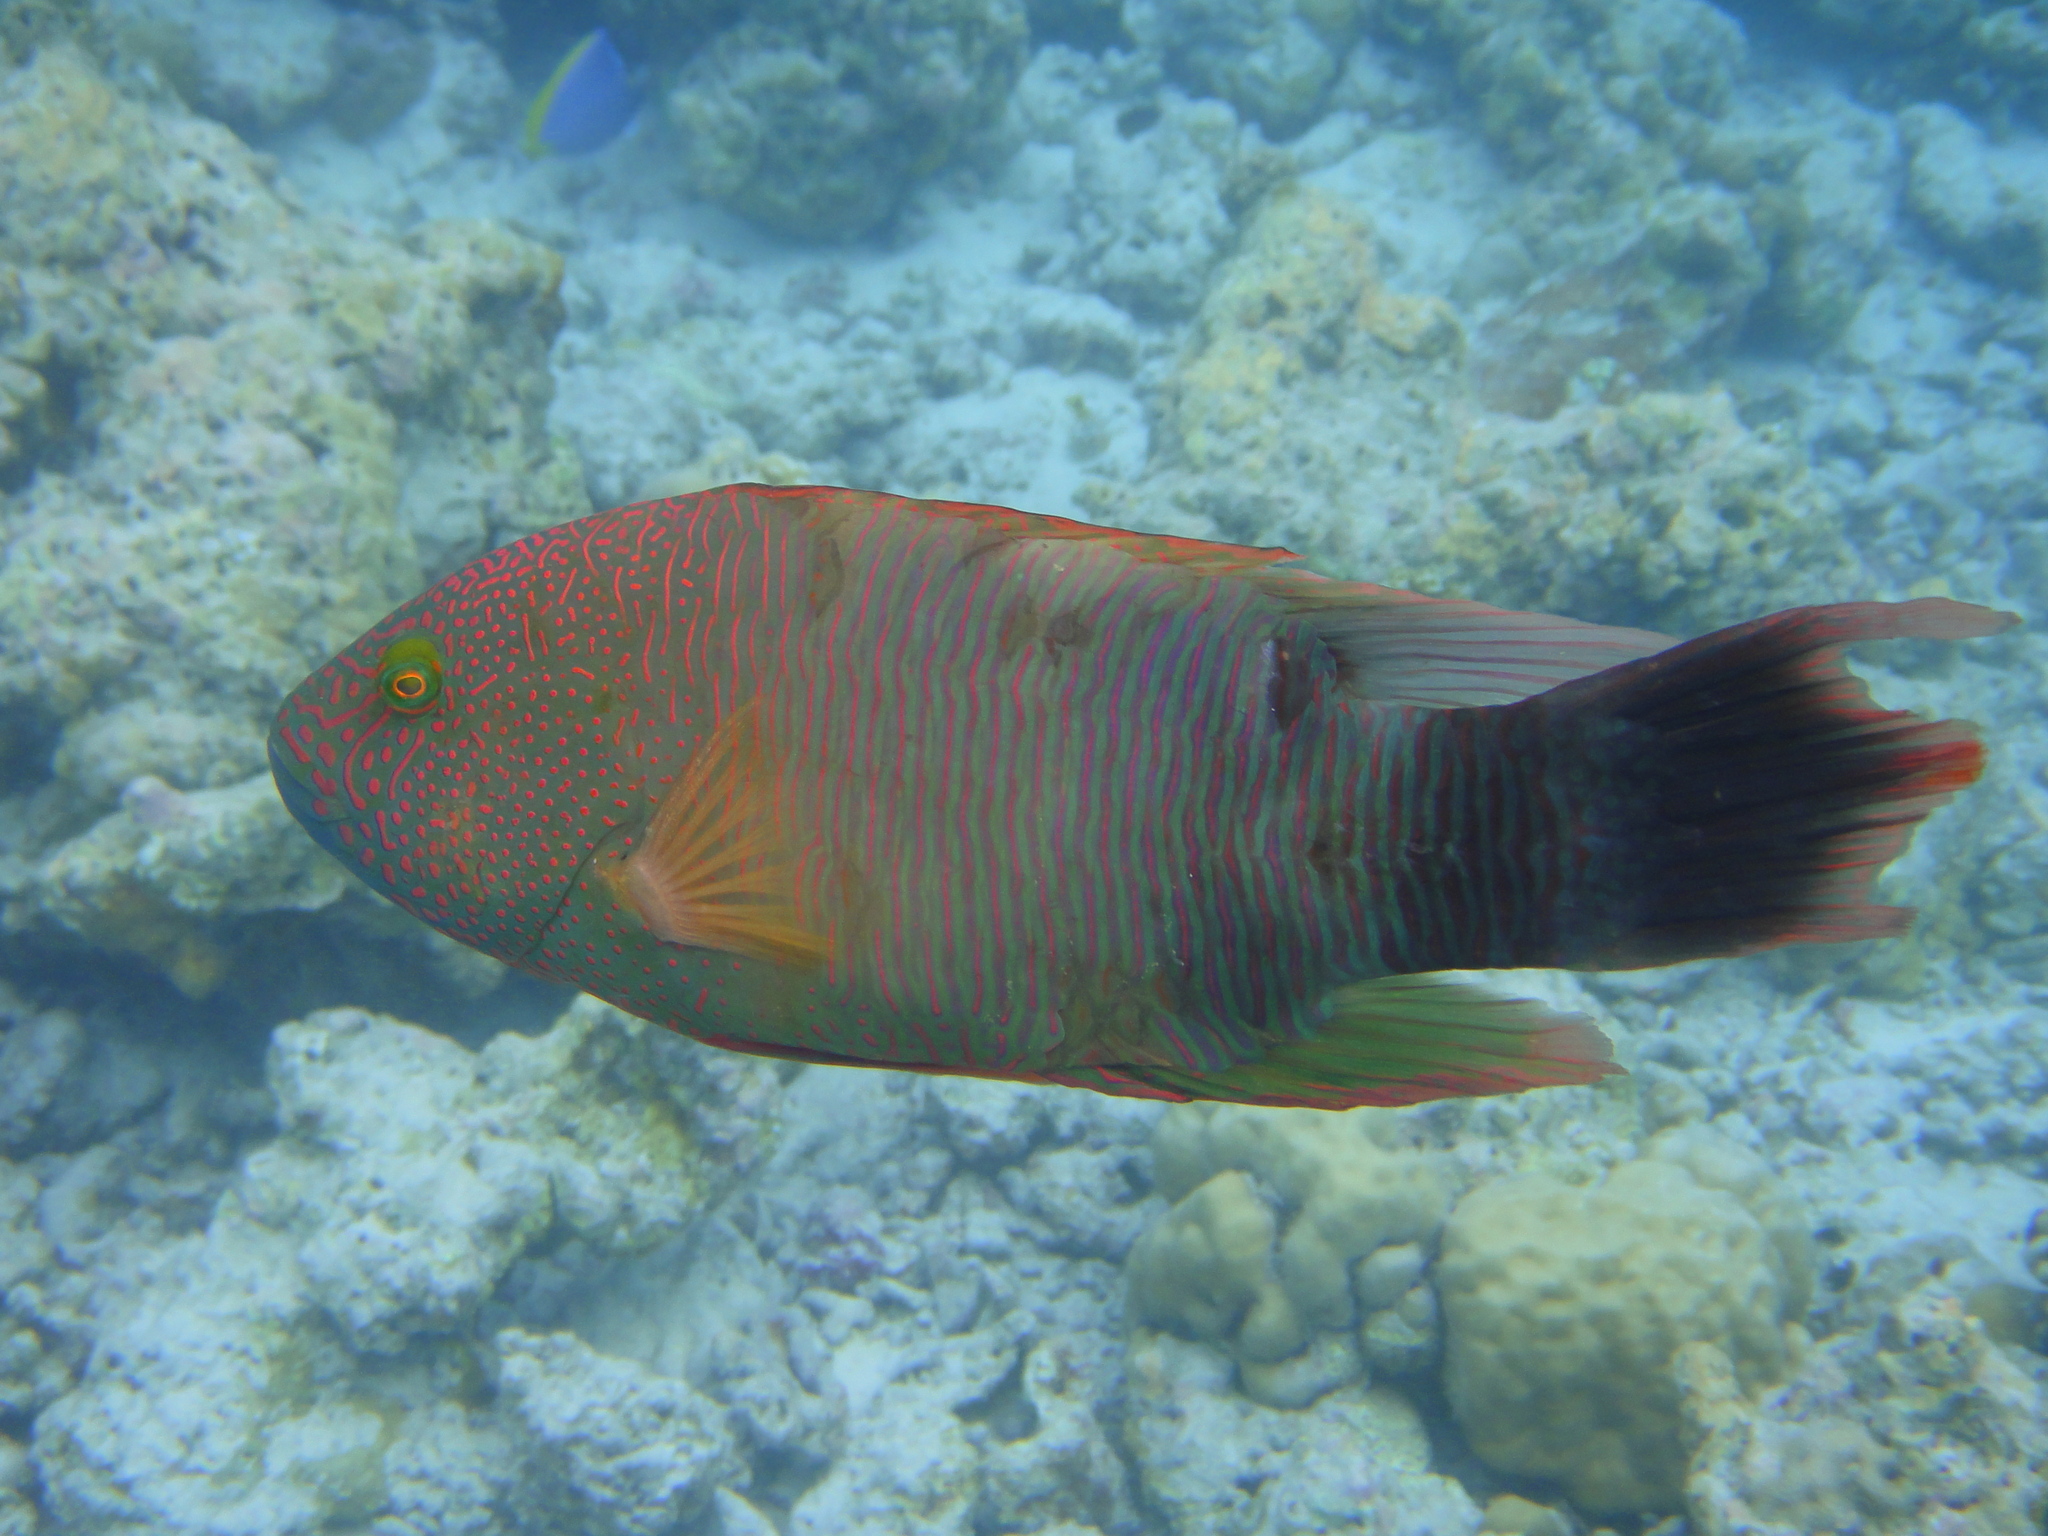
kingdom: Animalia
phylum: Chordata
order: Perciformes
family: Labridae
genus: Cheilinus
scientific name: Cheilinus trilobatus
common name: Tripletail maori wrasse
